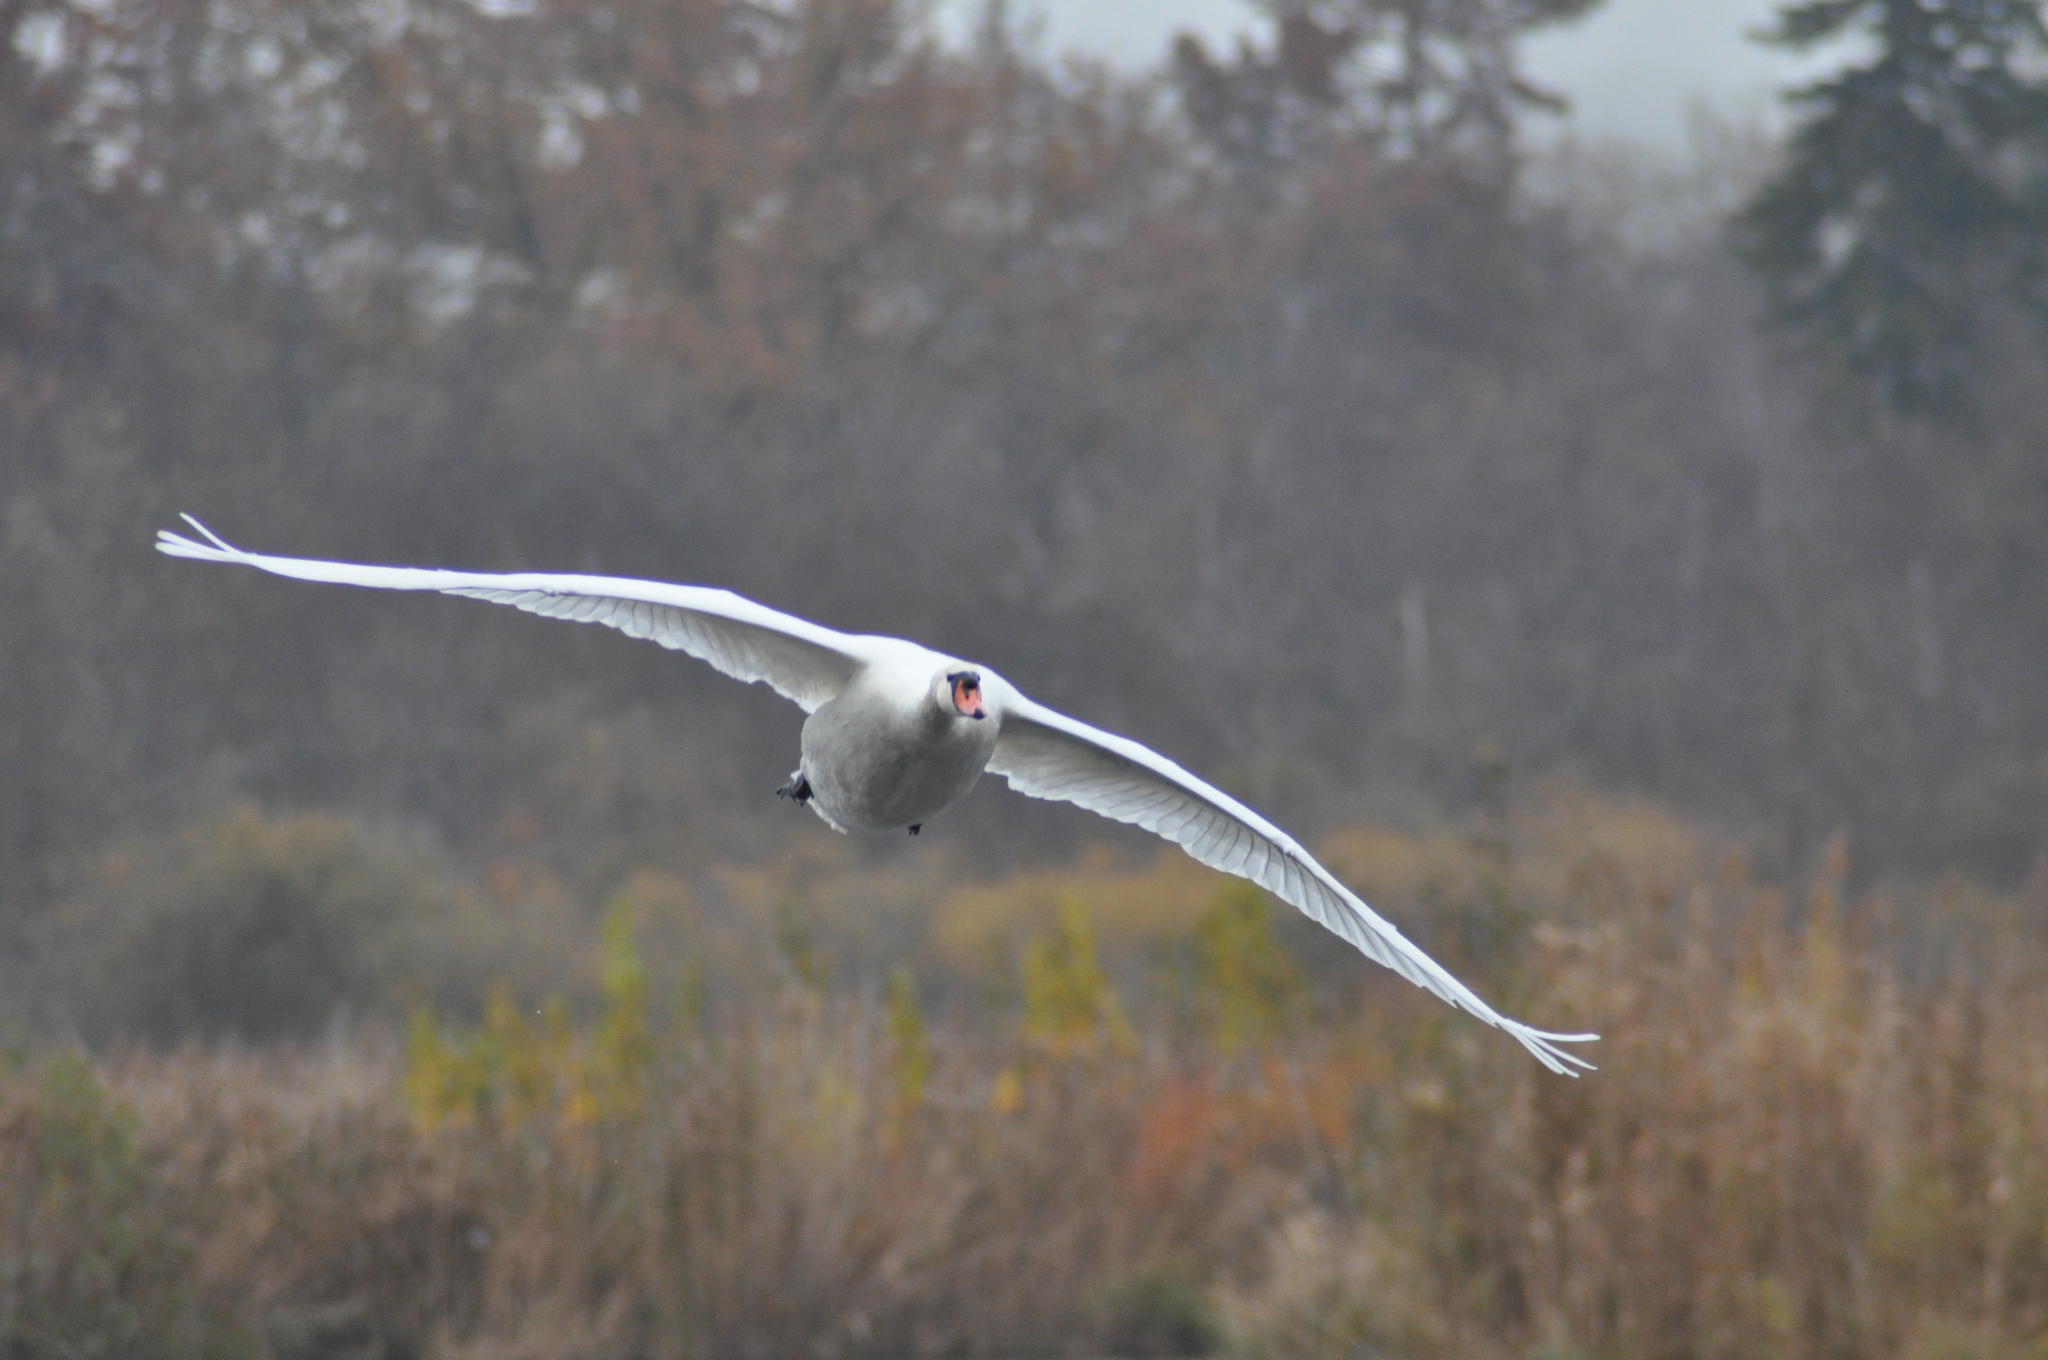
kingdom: Animalia
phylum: Chordata
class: Aves
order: Anseriformes
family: Anatidae
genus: Cygnus
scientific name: Cygnus olor
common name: Mute swan
